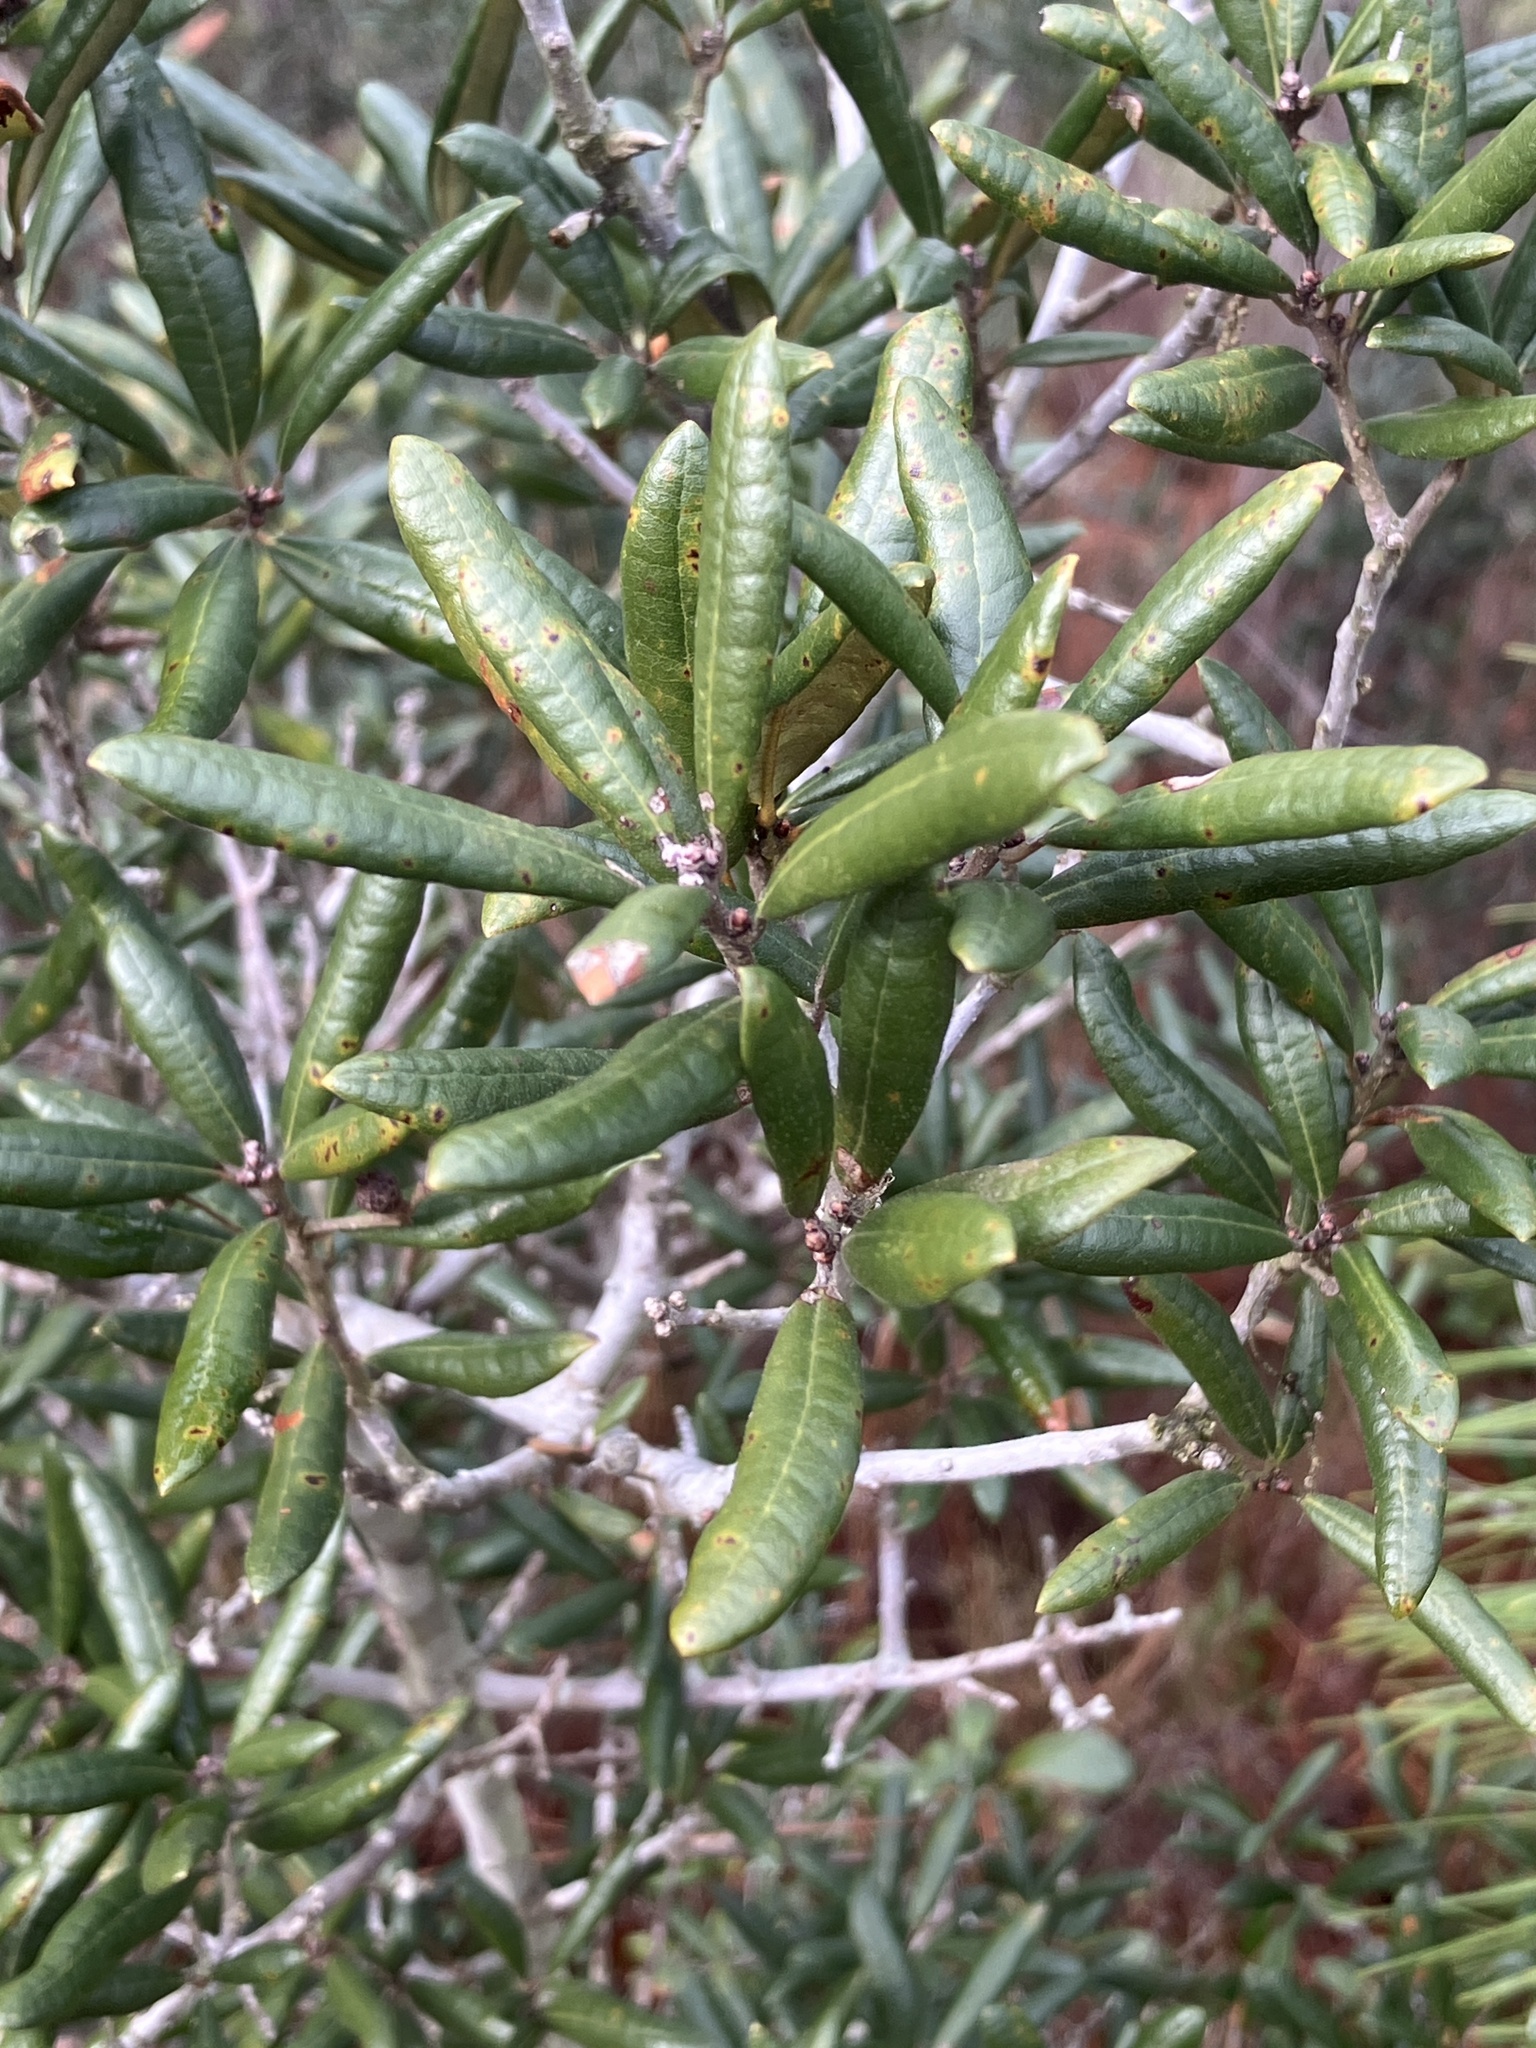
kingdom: Plantae
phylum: Tracheophyta
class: Magnoliopsida
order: Fagales
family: Fagaceae
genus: Quercus
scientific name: Quercus geminata
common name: Sand live oak
